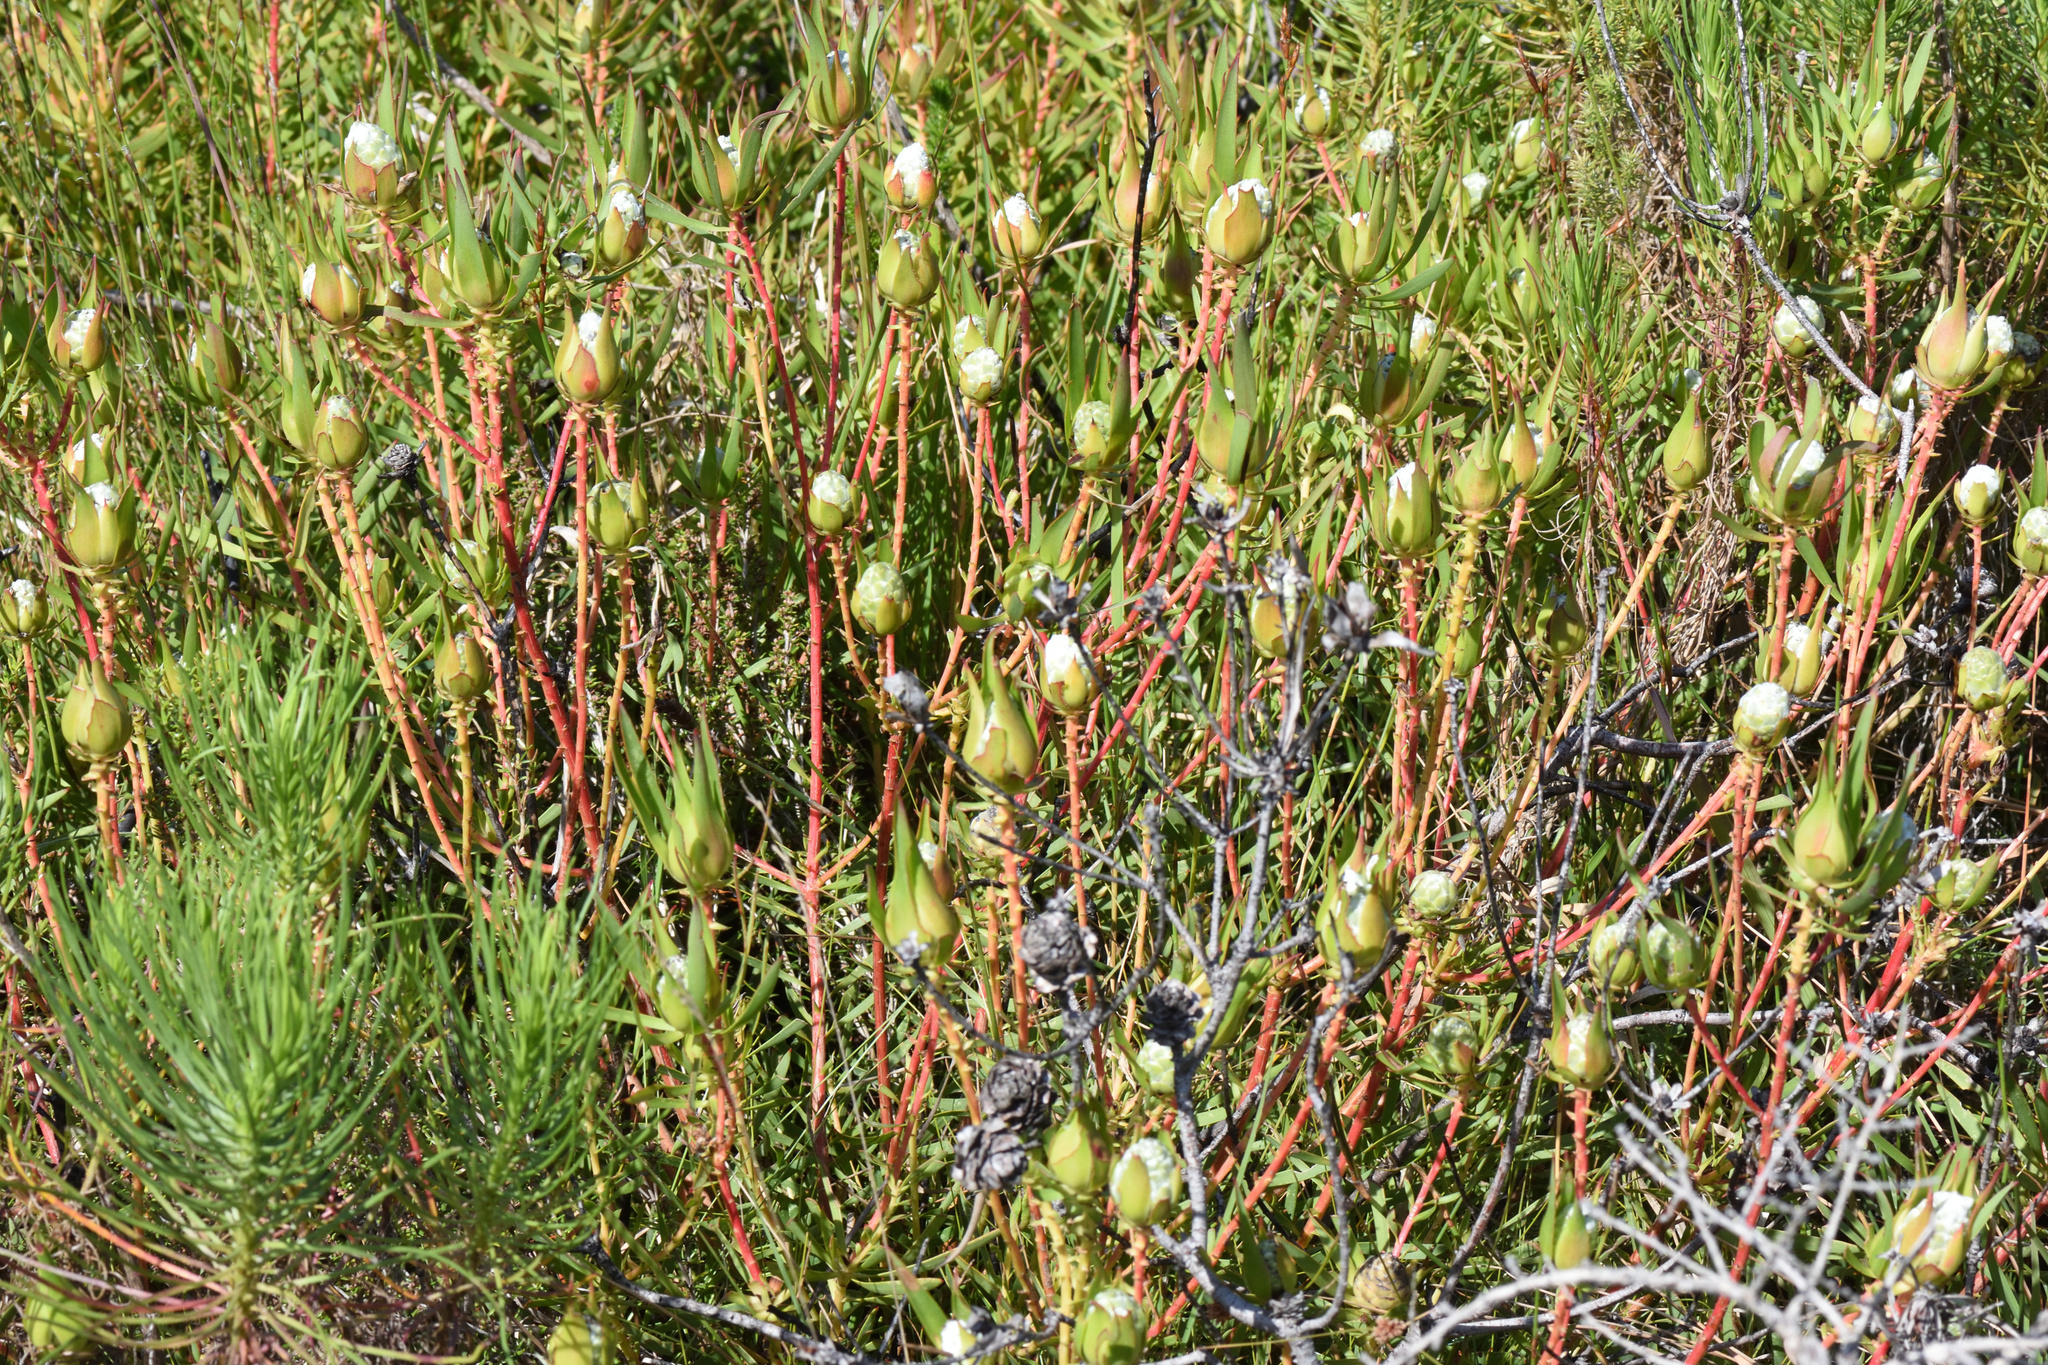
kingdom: Plantae
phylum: Tracheophyta
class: Magnoliopsida
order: Proteales
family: Proteaceae
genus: Leucadendron
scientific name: Leucadendron salignum
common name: Common sunshine conebush
